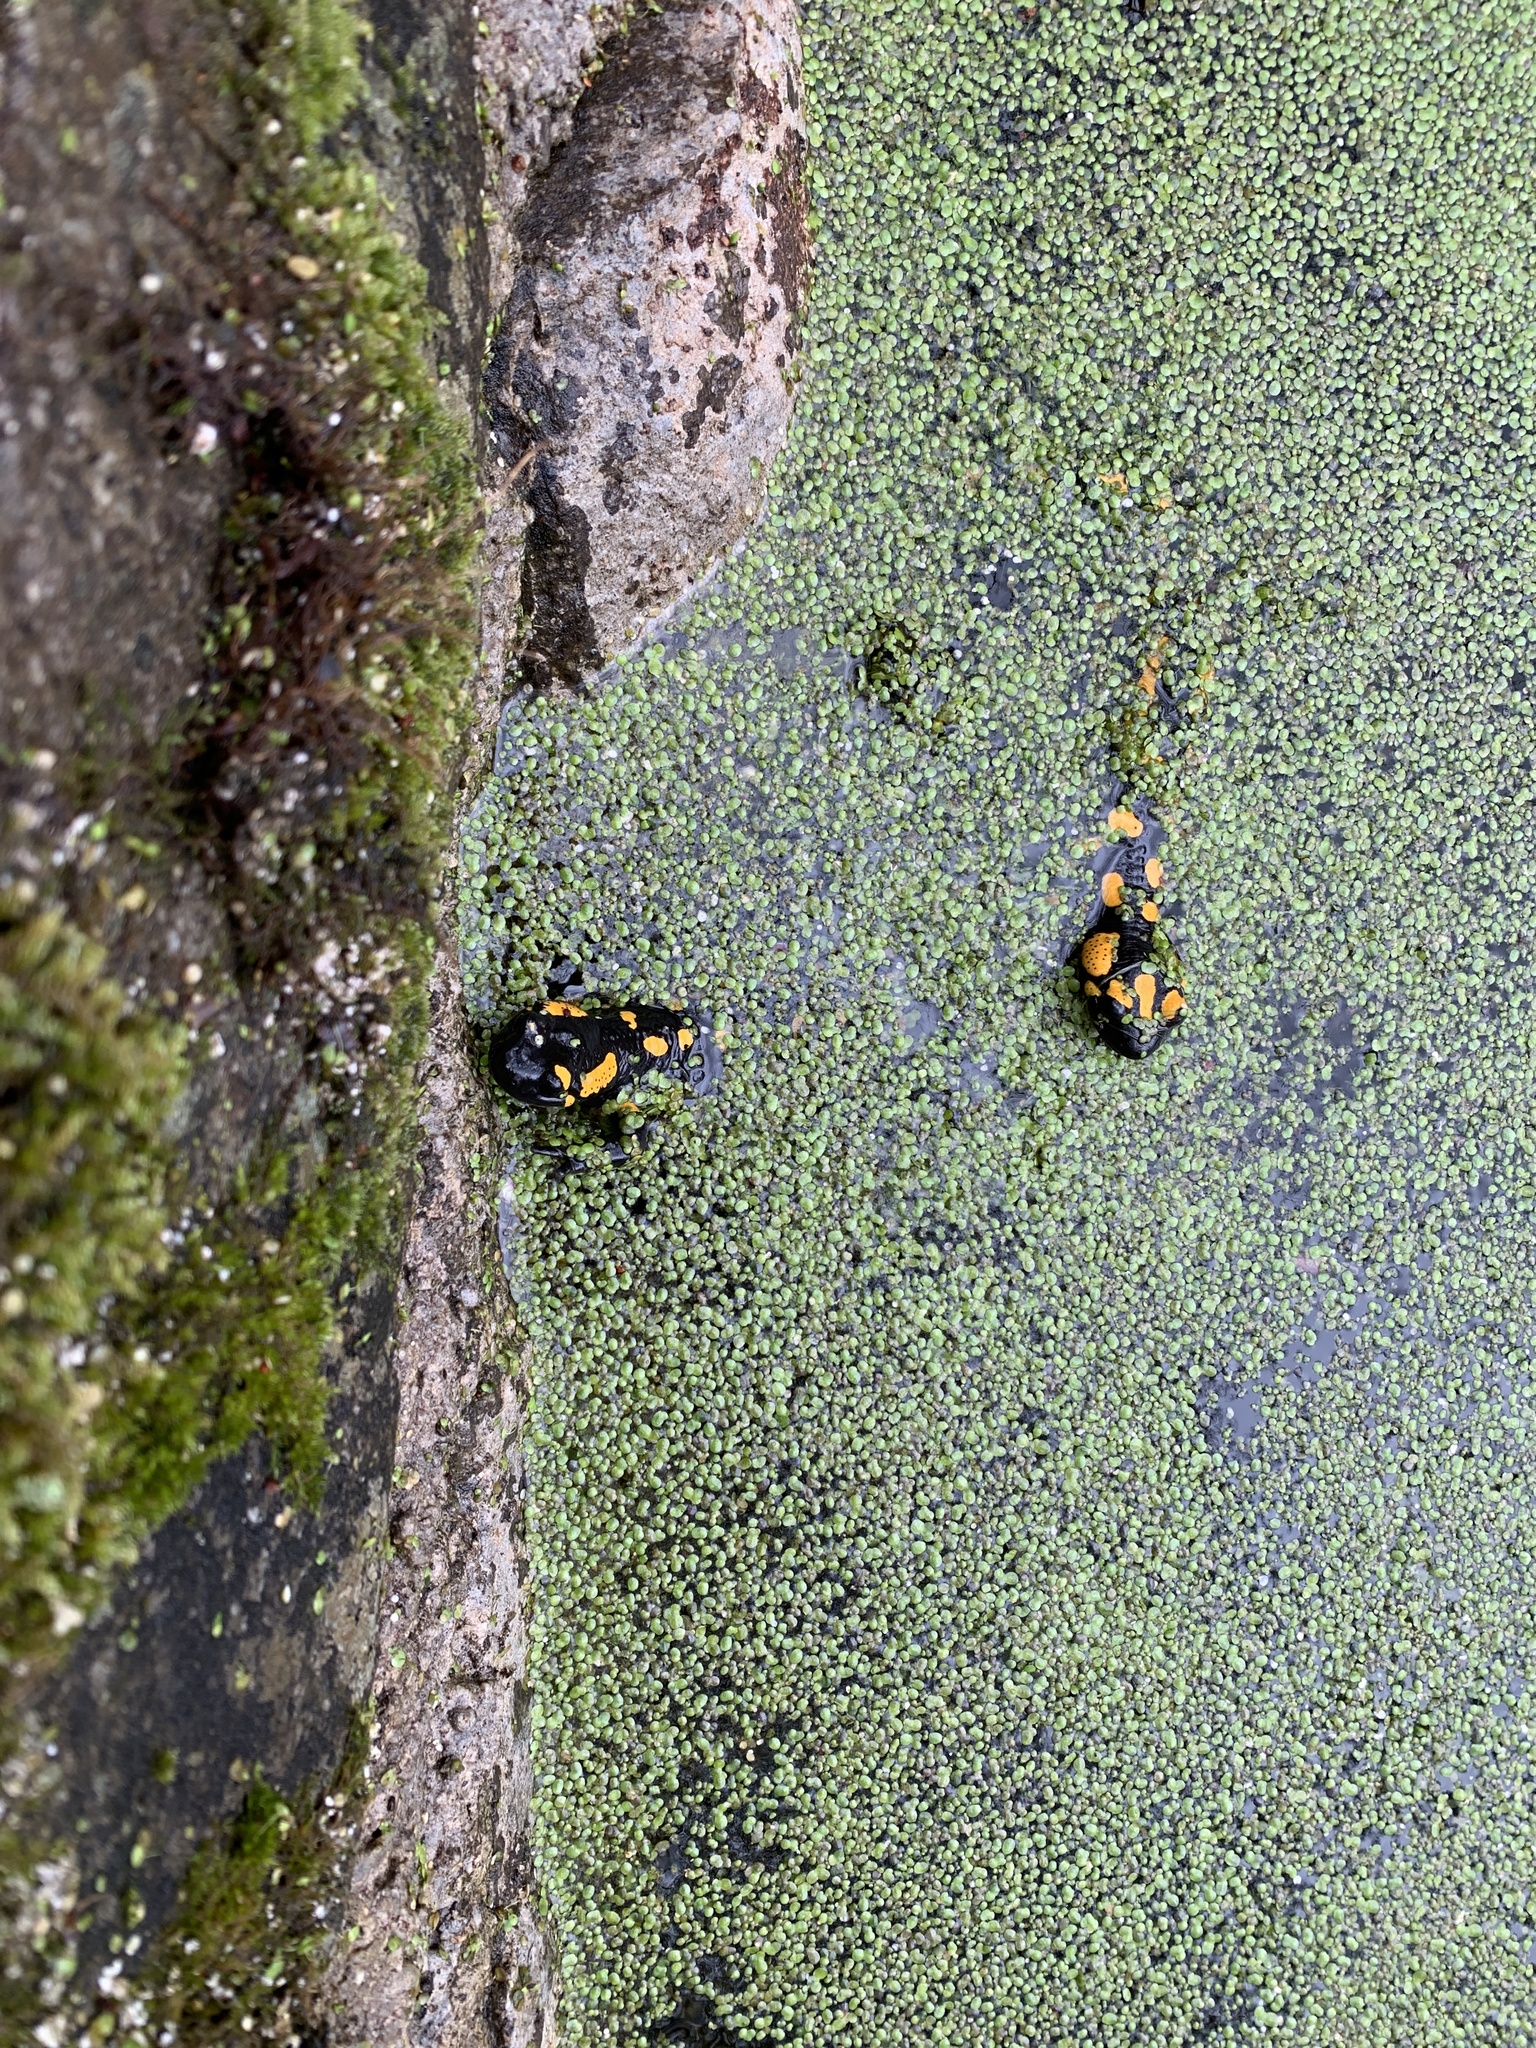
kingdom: Animalia
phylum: Chordata
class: Amphibia
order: Caudata
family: Salamandridae
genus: Salamandra
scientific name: Salamandra salamandra
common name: Fire salamander
